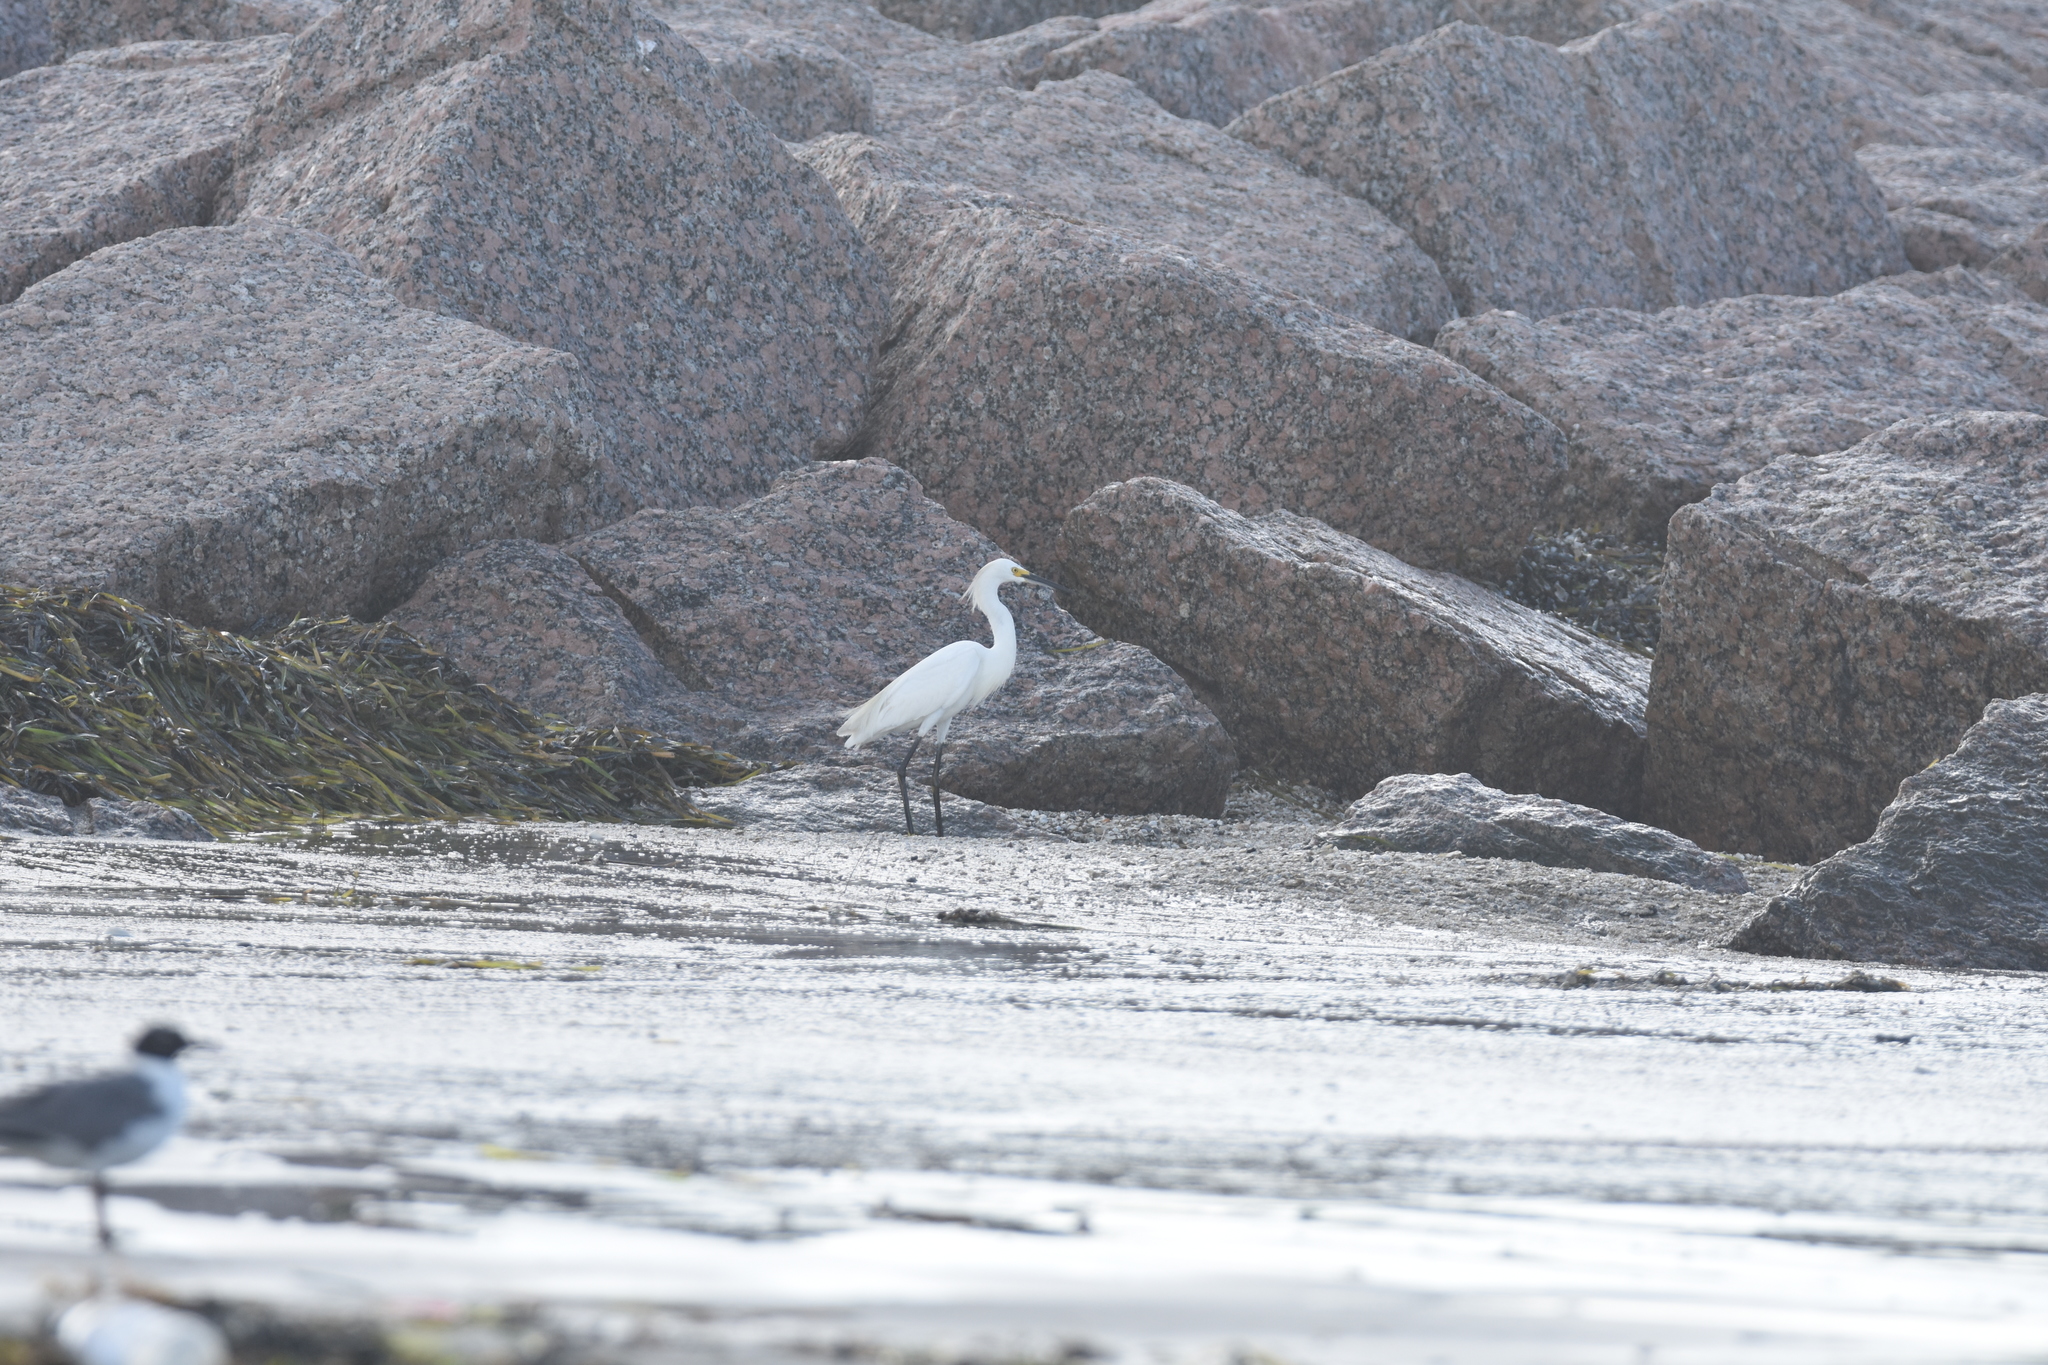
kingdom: Animalia
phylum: Chordata
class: Aves
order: Pelecaniformes
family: Ardeidae
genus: Egretta
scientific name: Egretta thula
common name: Snowy egret
